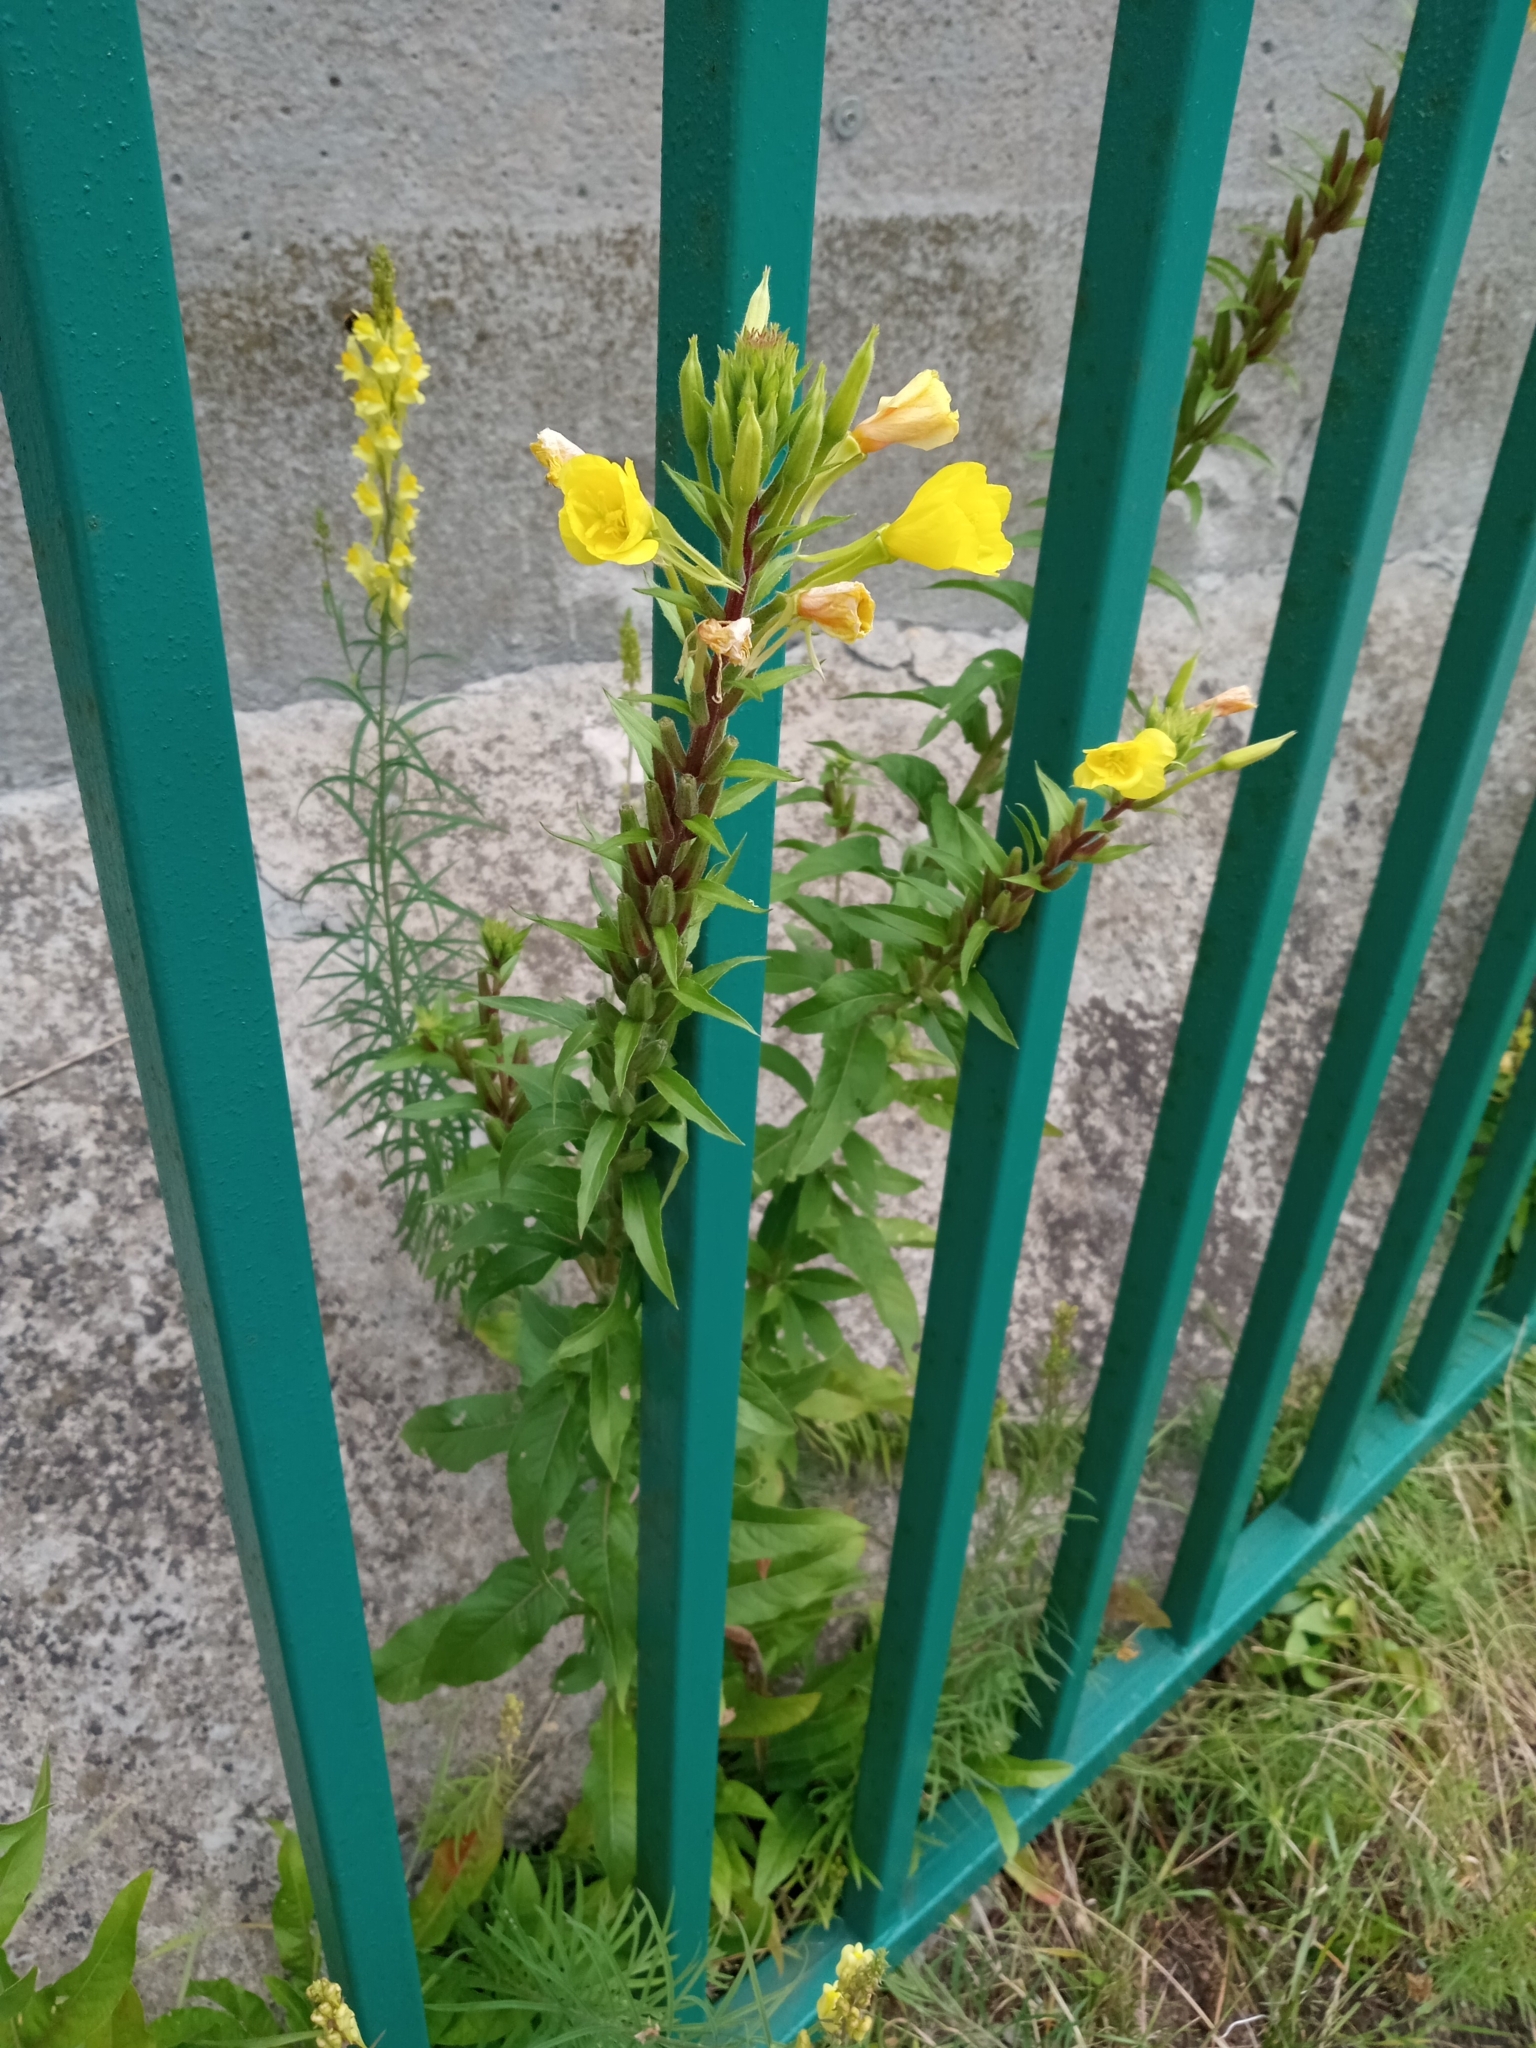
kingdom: Plantae
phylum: Tracheophyta
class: Magnoliopsida
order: Myrtales
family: Onagraceae
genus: Oenothera
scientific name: Oenothera rubricaulis
